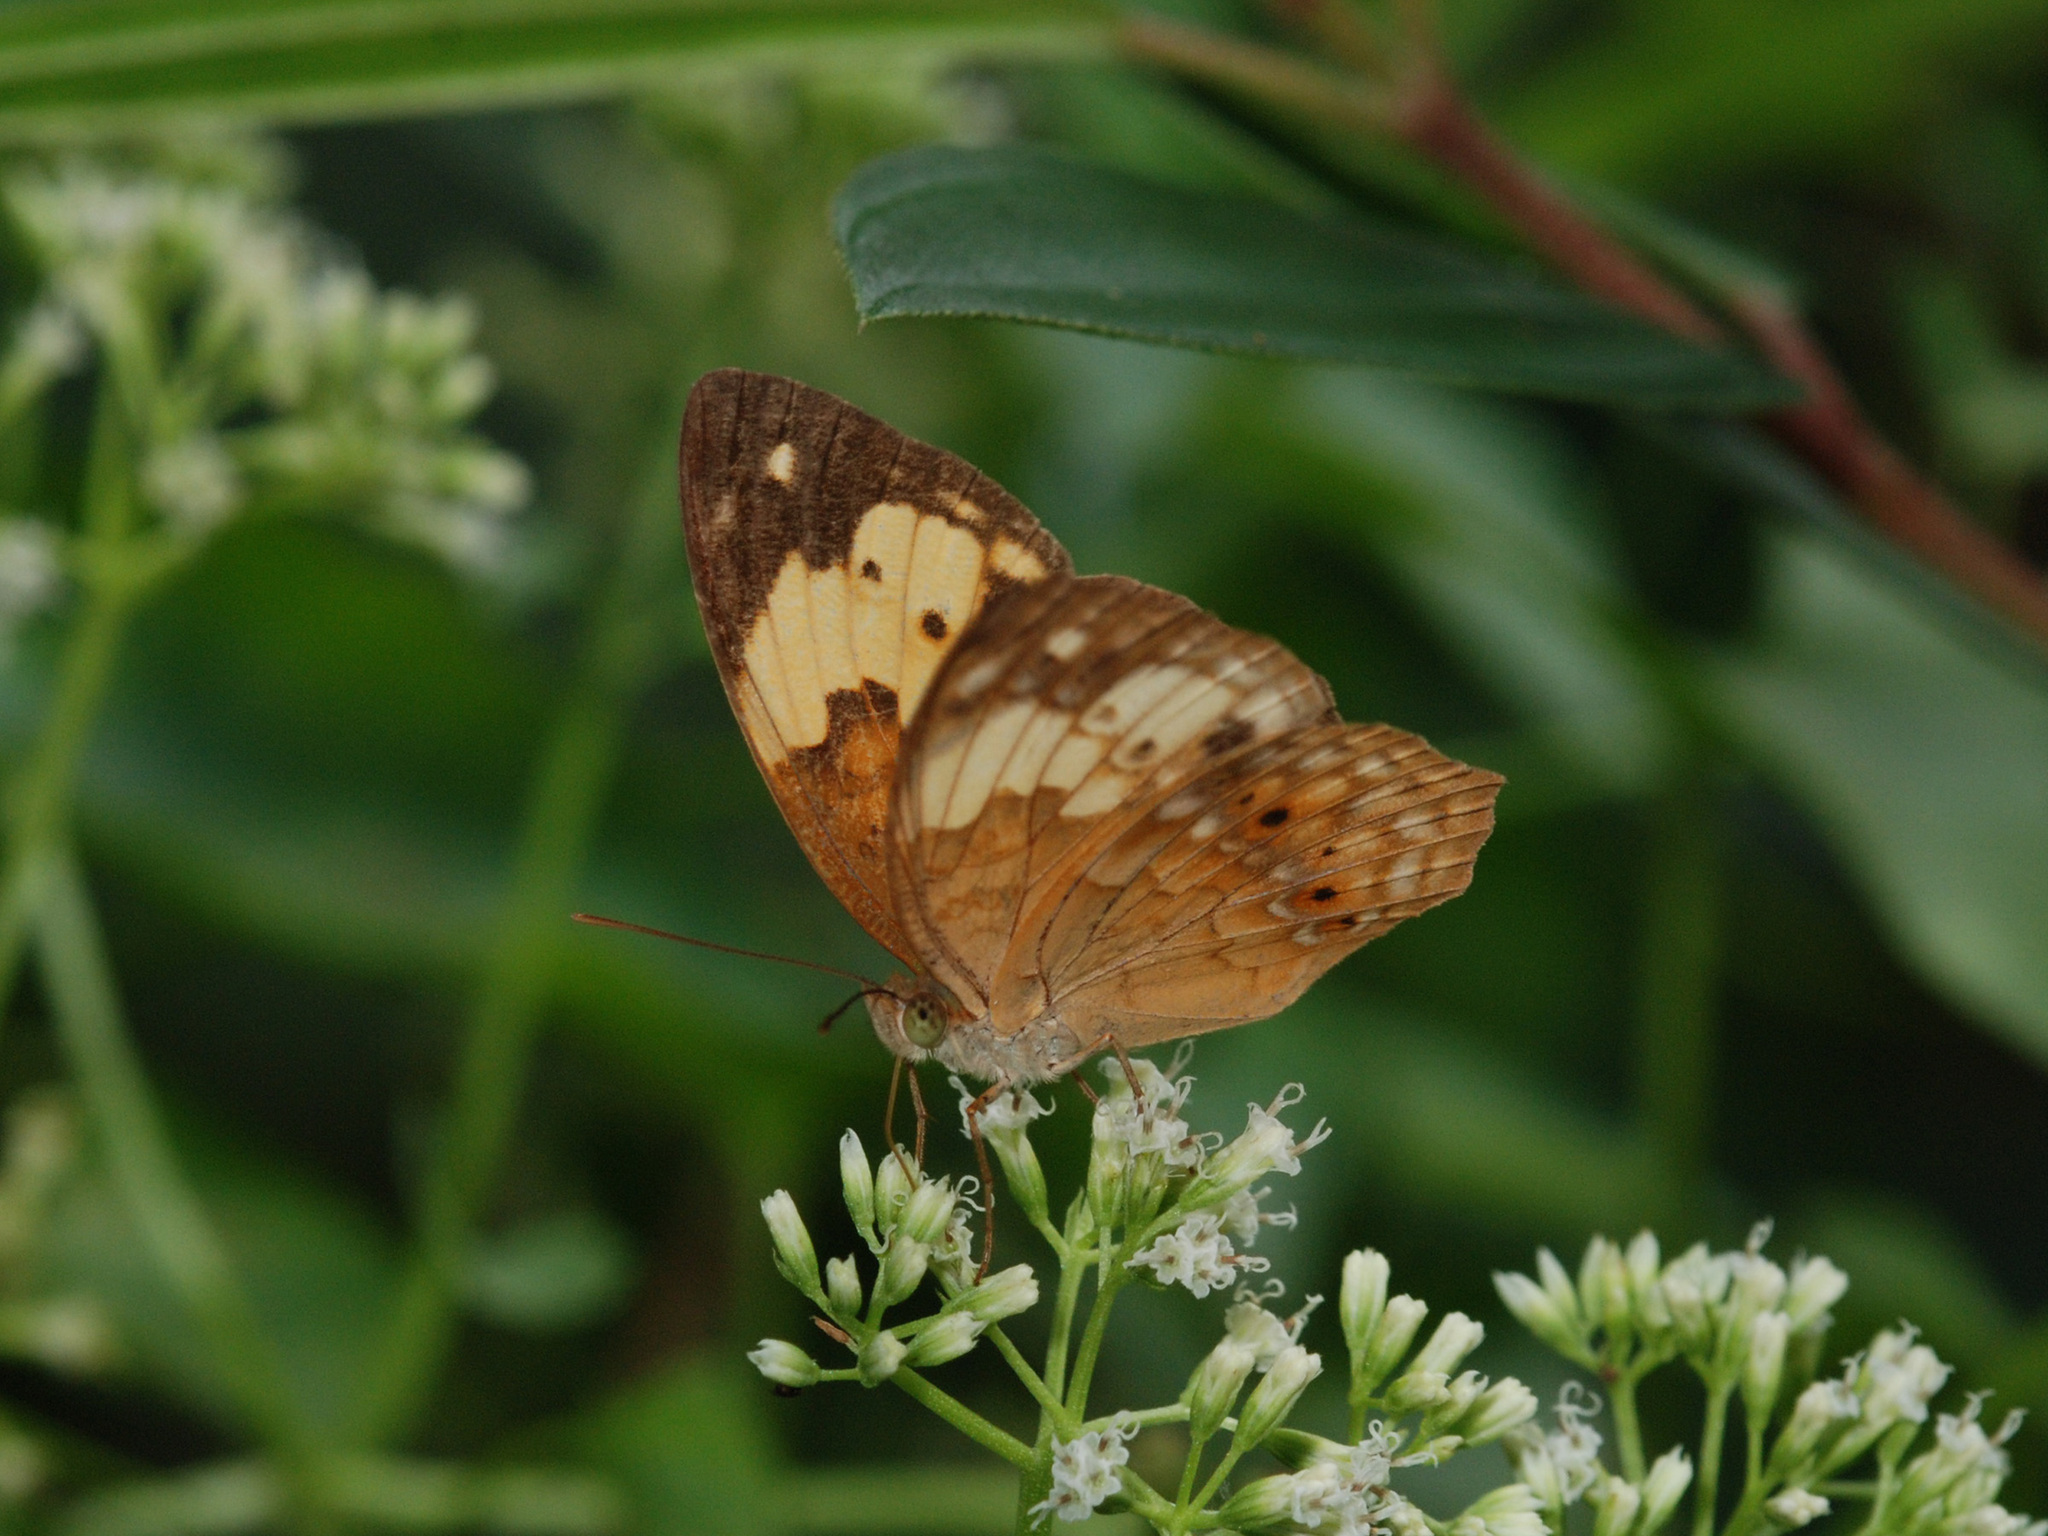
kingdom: Animalia
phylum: Arthropoda
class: Insecta
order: Lepidoptera
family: Nymphalidae
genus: Cupha
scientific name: Cupha erymanthis
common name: Rustic
